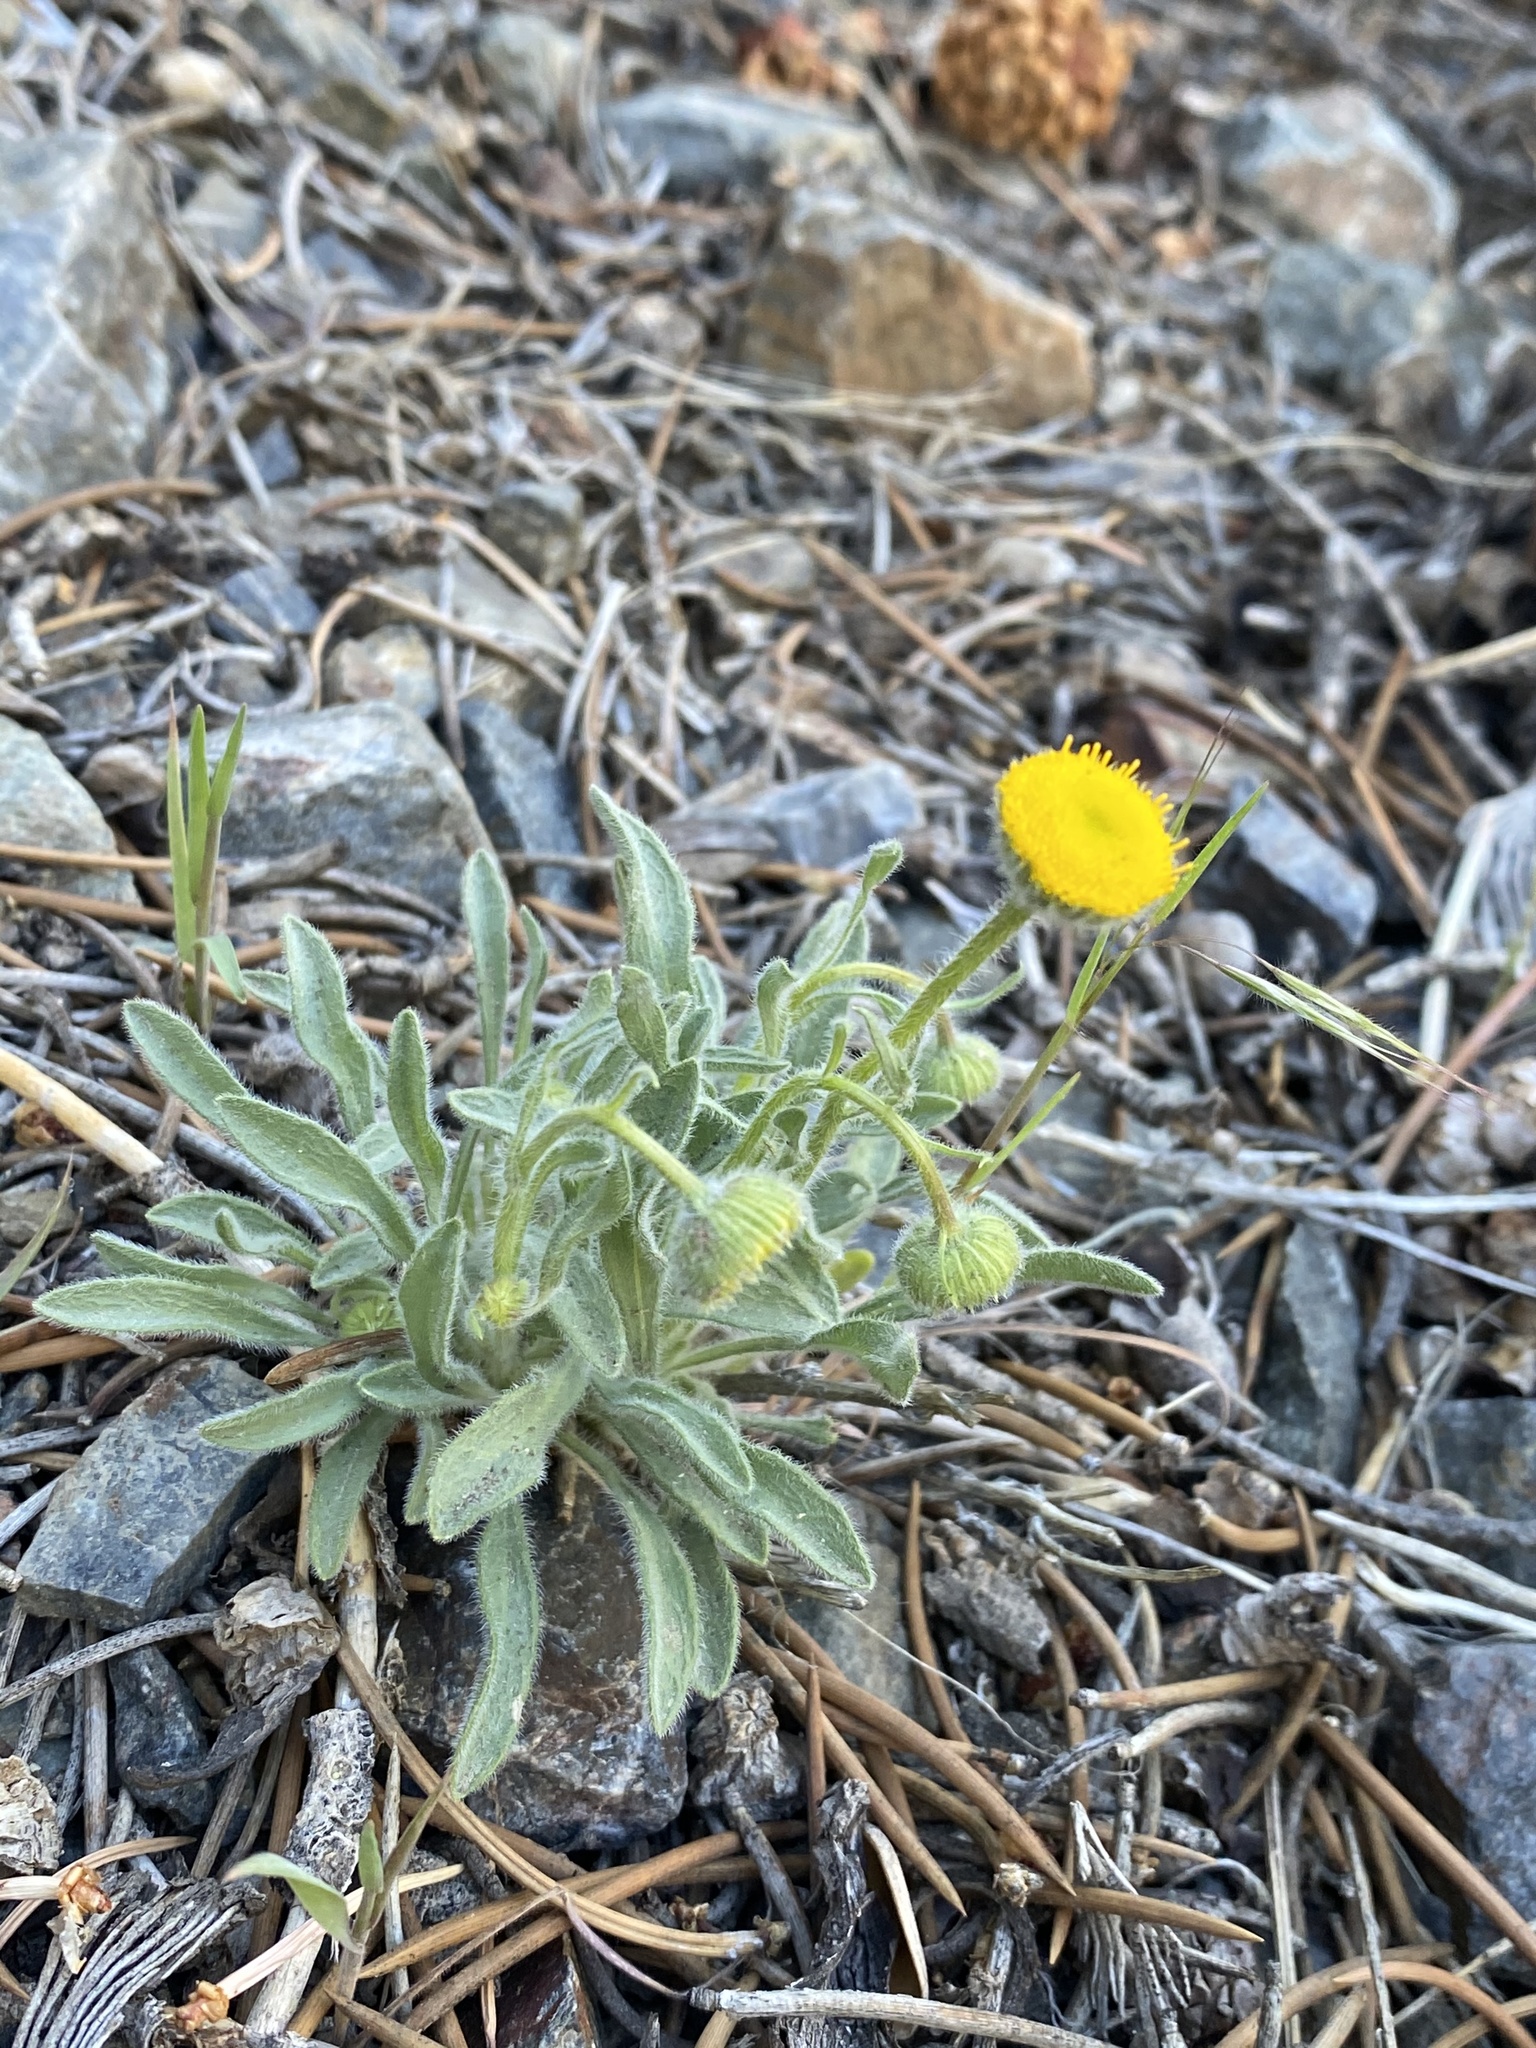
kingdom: Plantae
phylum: Tracheophyta
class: Magnoliopsida
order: Asterales
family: Asteraceae
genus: Erigeron
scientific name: Erigeron aphanactis
